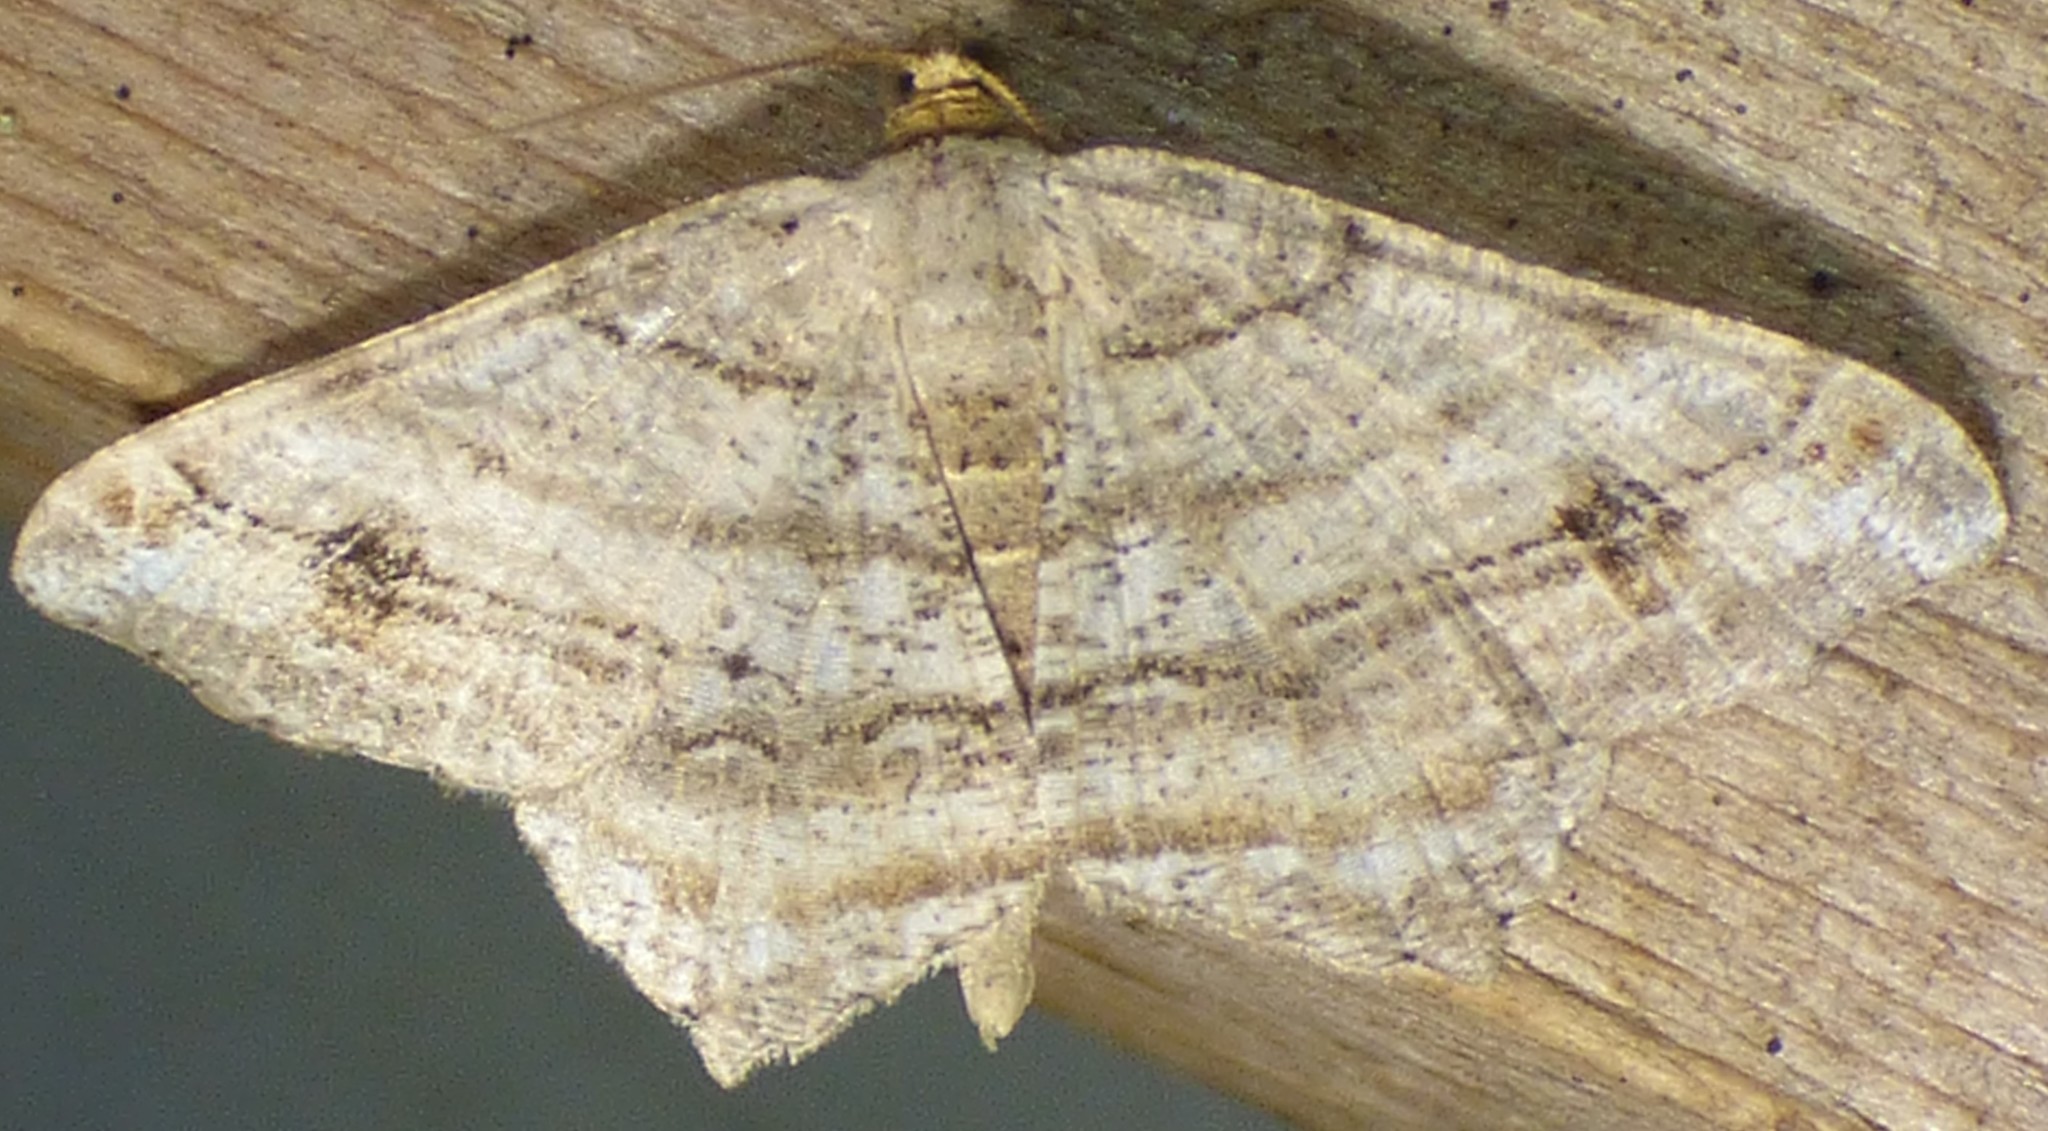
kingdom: Animalia
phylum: Arthropoda
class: Insecta
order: Lepidoptera
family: Geometridae
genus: Macaria
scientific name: Macaria multilineata
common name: Many-lined angle
